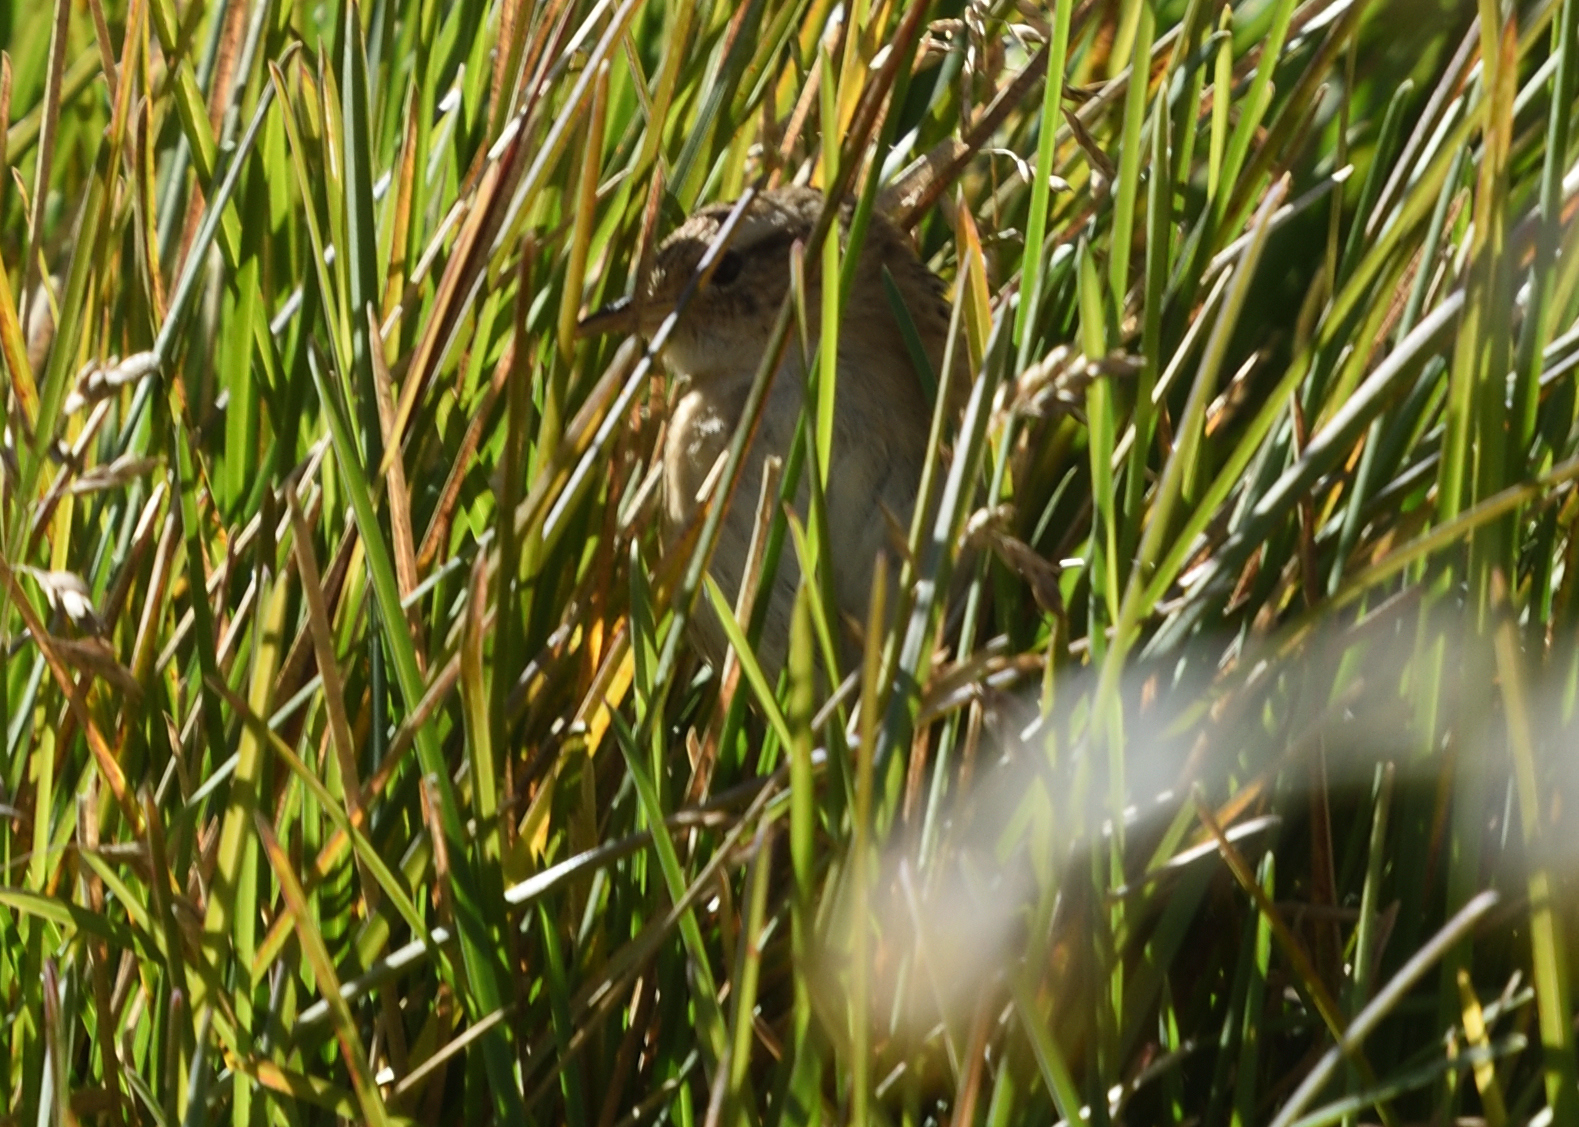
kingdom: Animalia
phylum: Chordata
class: Aves
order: Passeriformes
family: Troglodytidae
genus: Cistothorus
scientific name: Cistothorus platensis
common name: Sedge wren
